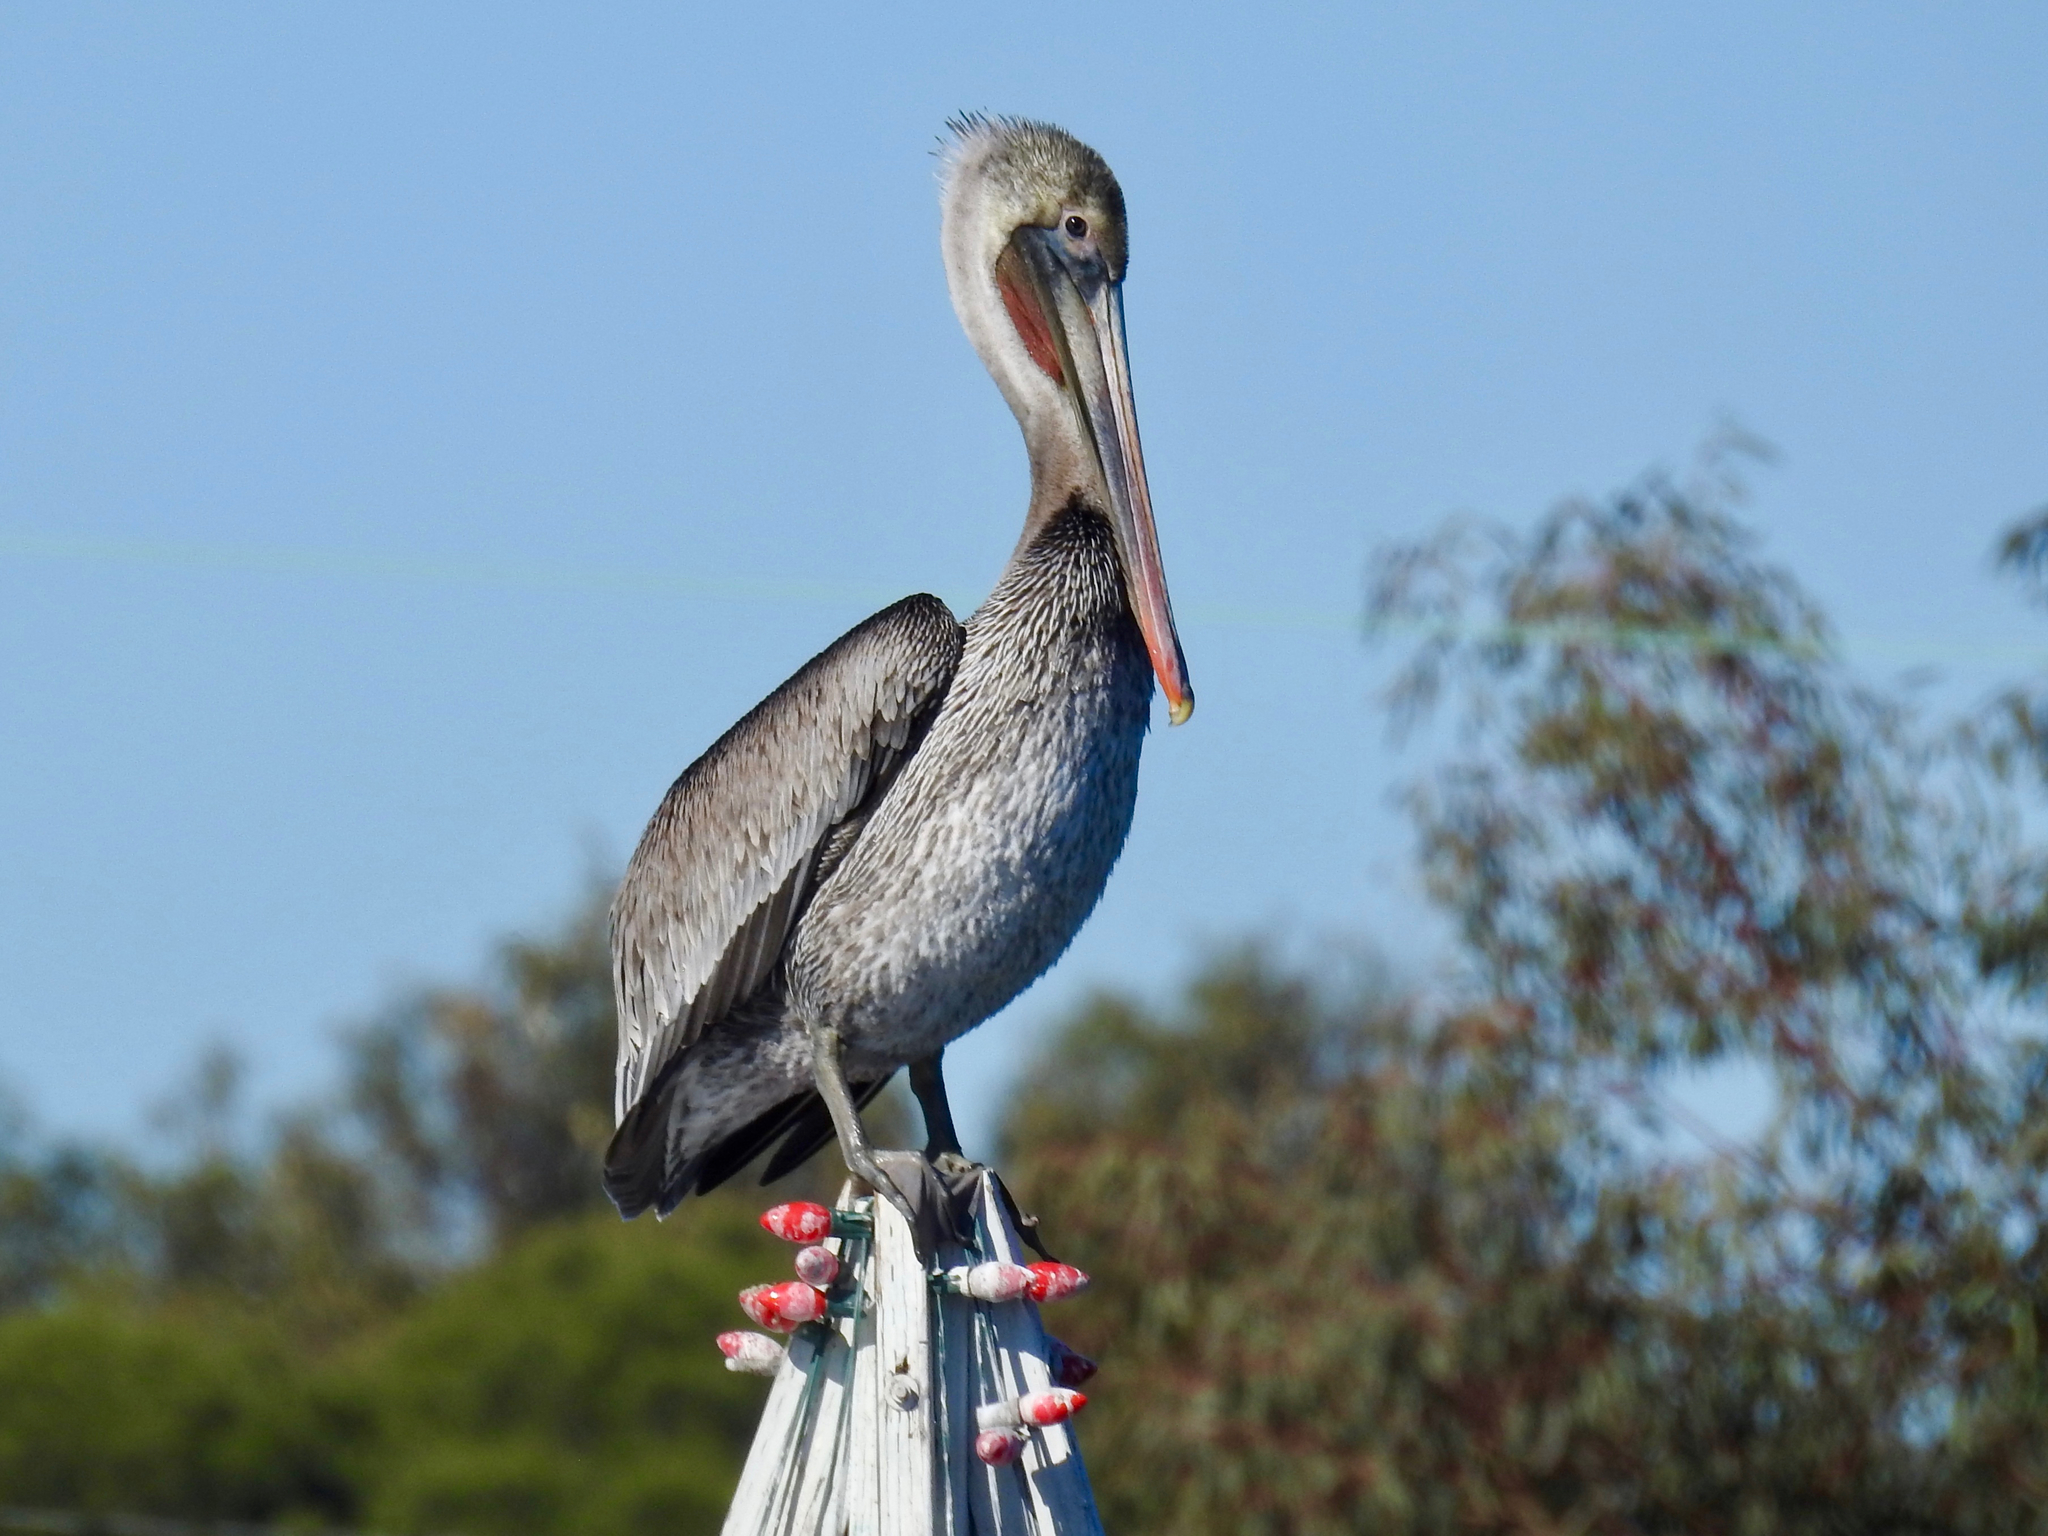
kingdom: Animalia
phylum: Chordata
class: Aves
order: Pelecaniformes
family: Pelecanidae
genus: Pelecanus
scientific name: Pelecanus occidentalis
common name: Brown pelican
